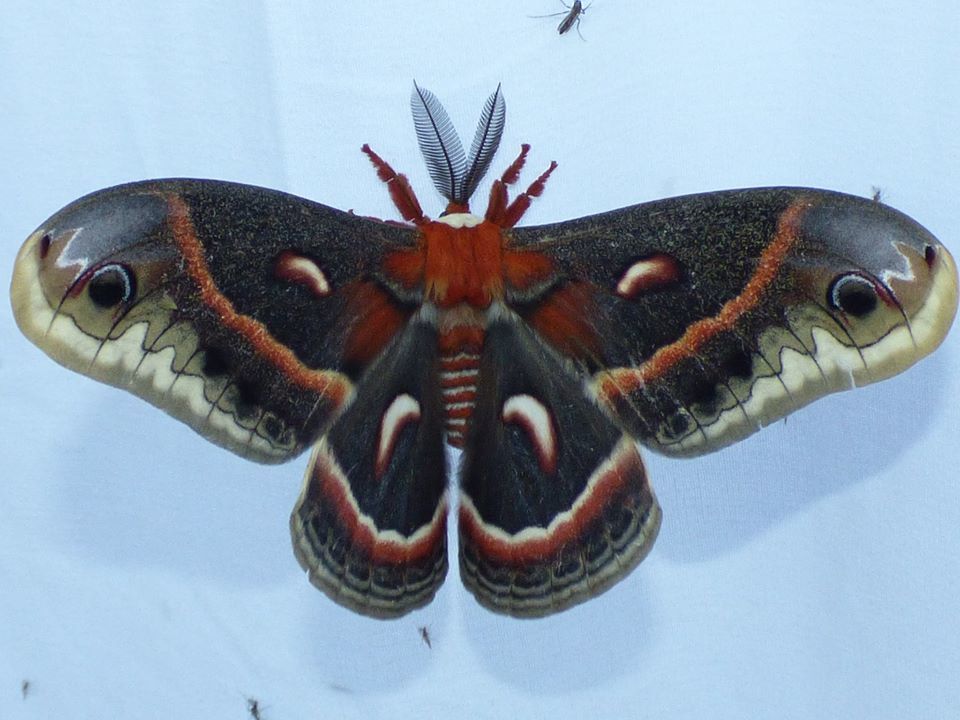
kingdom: Animalia
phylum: Arthropoda
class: Insecta
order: Lepidoptera
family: Saturniidae
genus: Hyalophora
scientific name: Hyalophora cecropia
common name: Cecropia silkmoth
